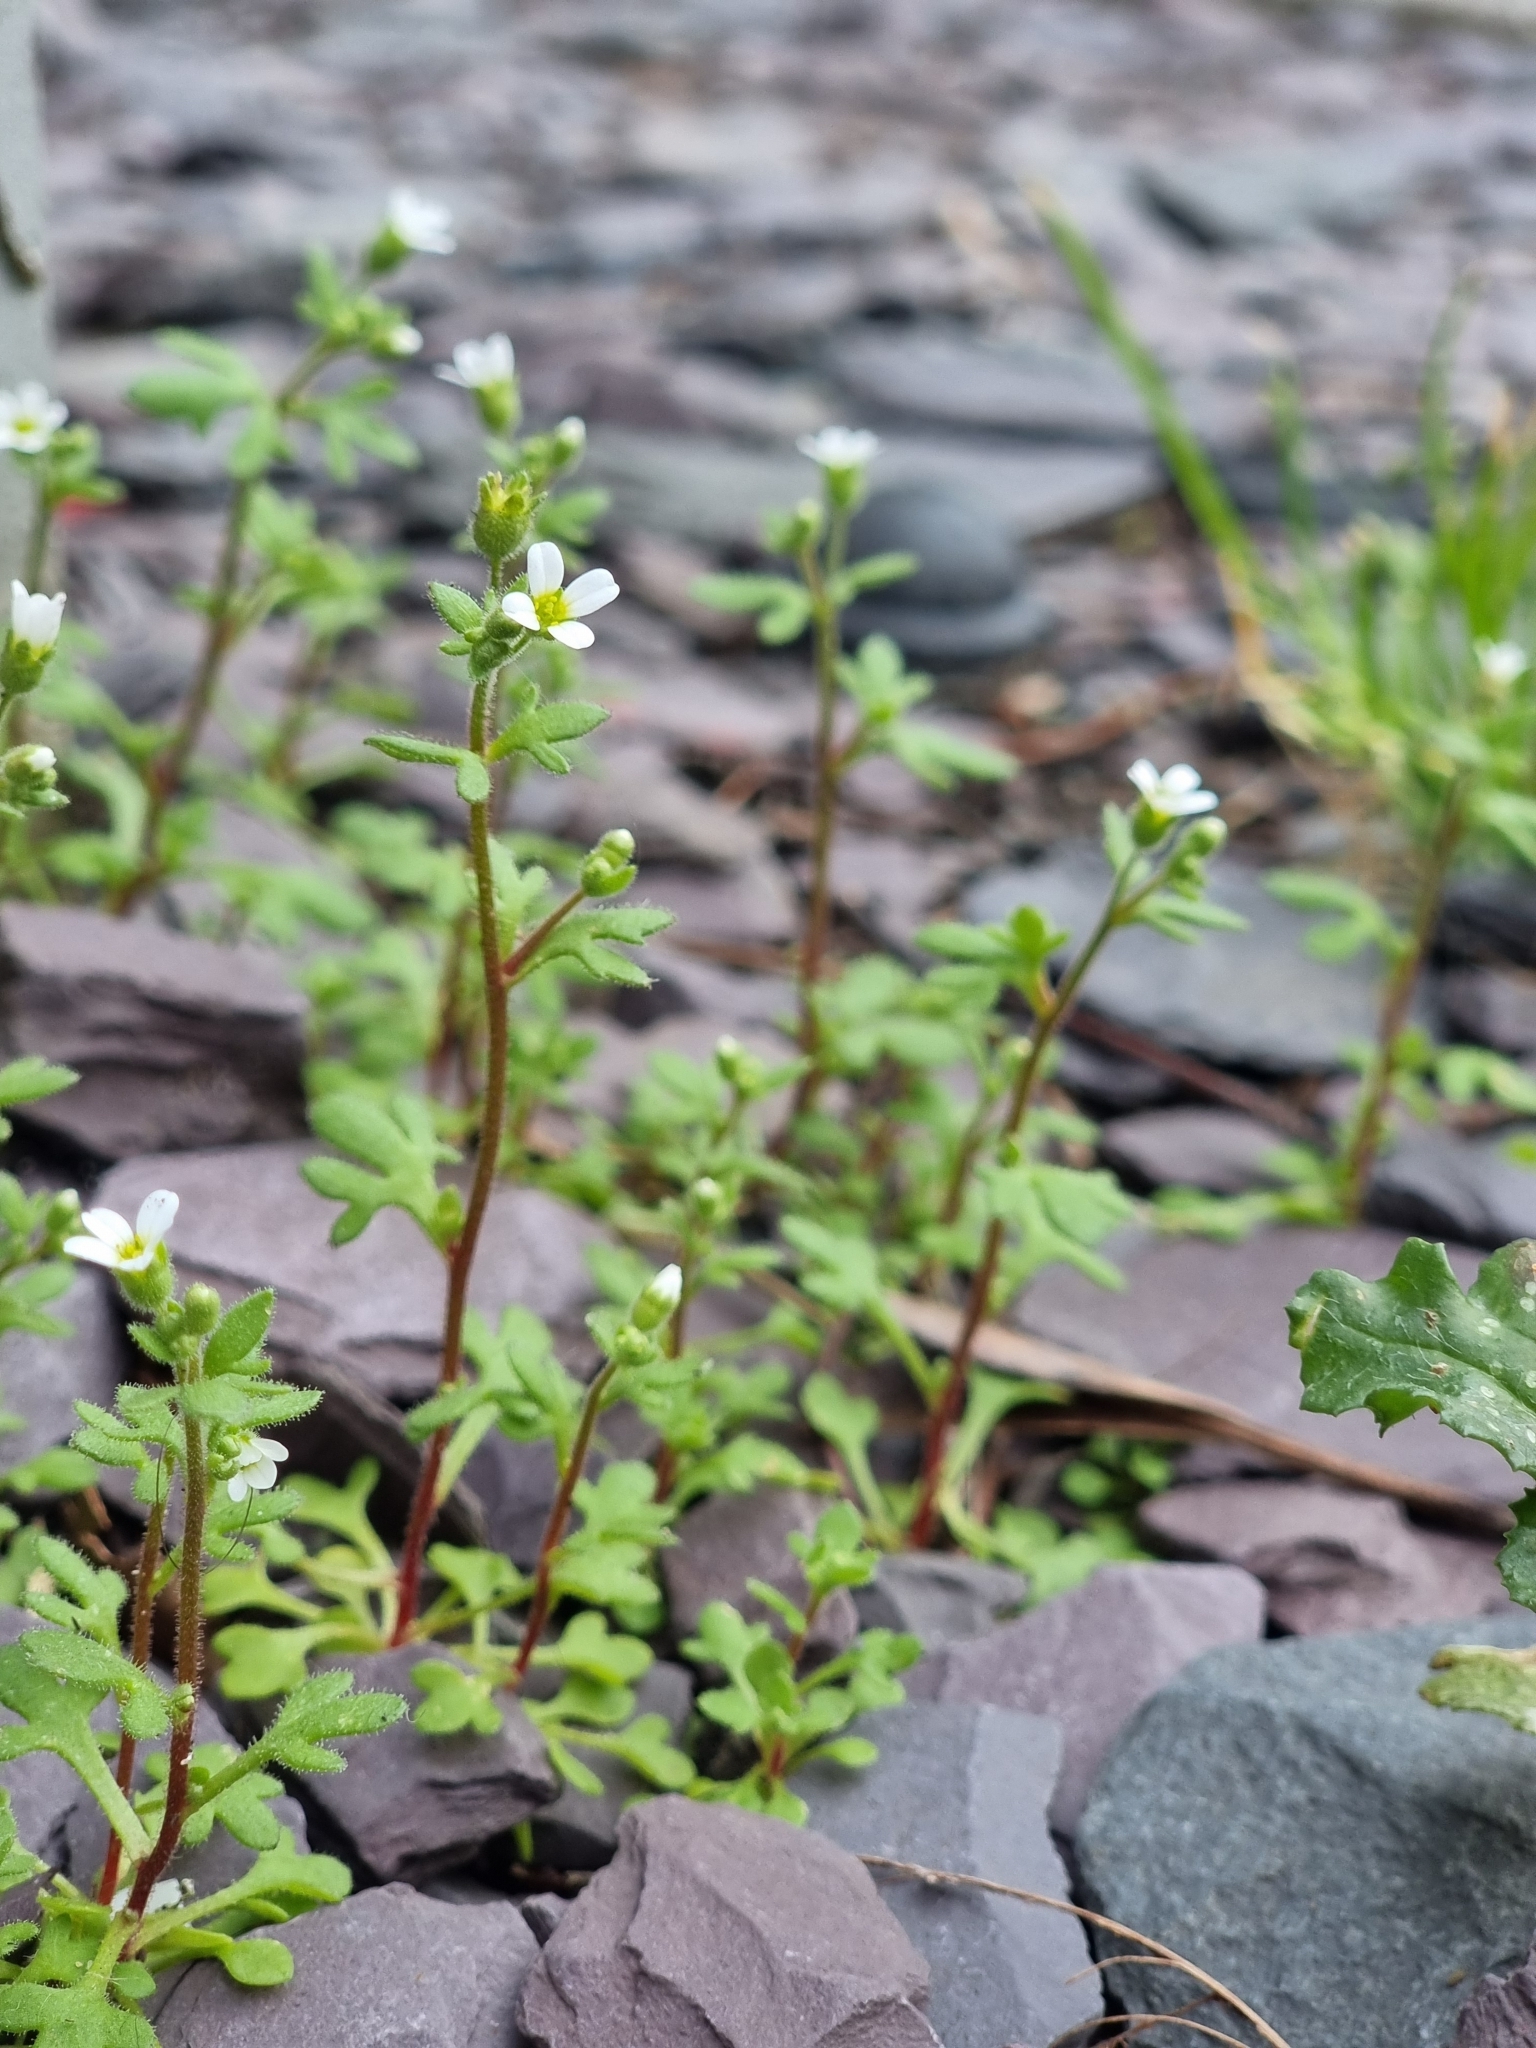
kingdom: Plantae
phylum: Tracheophyta
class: Magnoliopsida
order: Saxifragales
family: Saxifragaceae
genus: Saxifraga
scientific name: Saxifraga tridactylites
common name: Rue-leaved saxifrage
